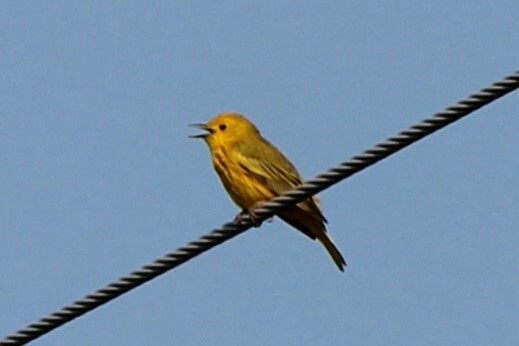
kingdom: Animalia
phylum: Chordata
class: Aves
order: Passeriformes
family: Parulidae
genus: Setophaga
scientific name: Setophaga petechia
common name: Yellow warbler
